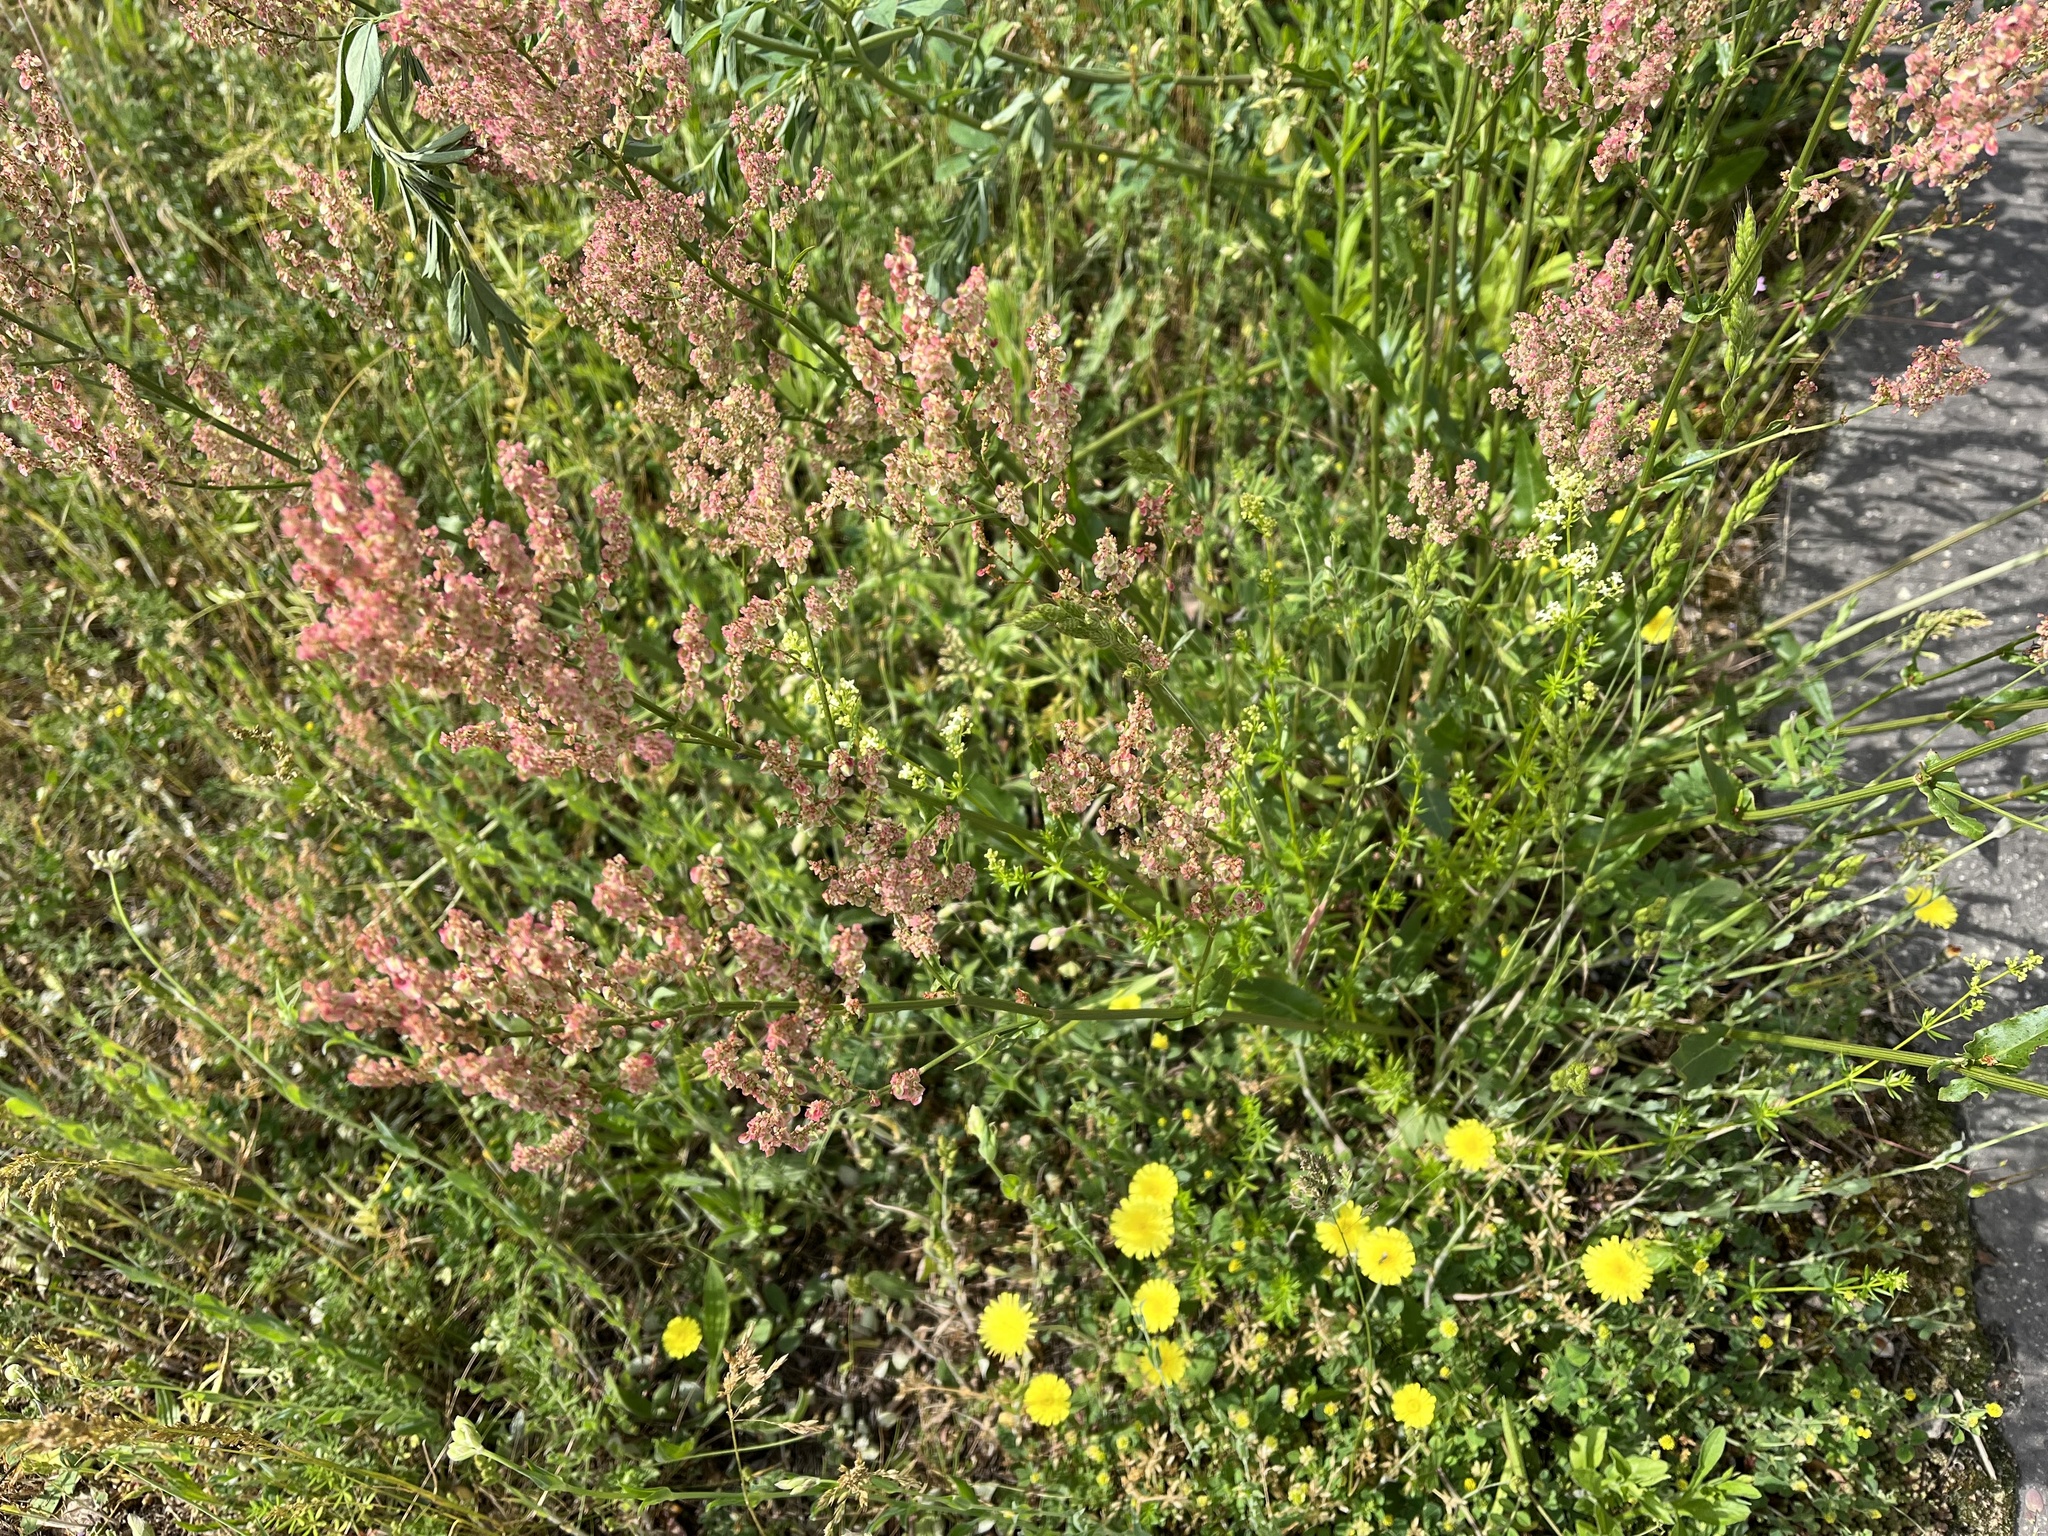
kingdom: Plantae
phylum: Tracheophyta
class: Magnoliopsida
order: Caryophyllales
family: Polygonaceae
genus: Rumex
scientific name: Rumex thyrsiflorus
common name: Garden sorrel
